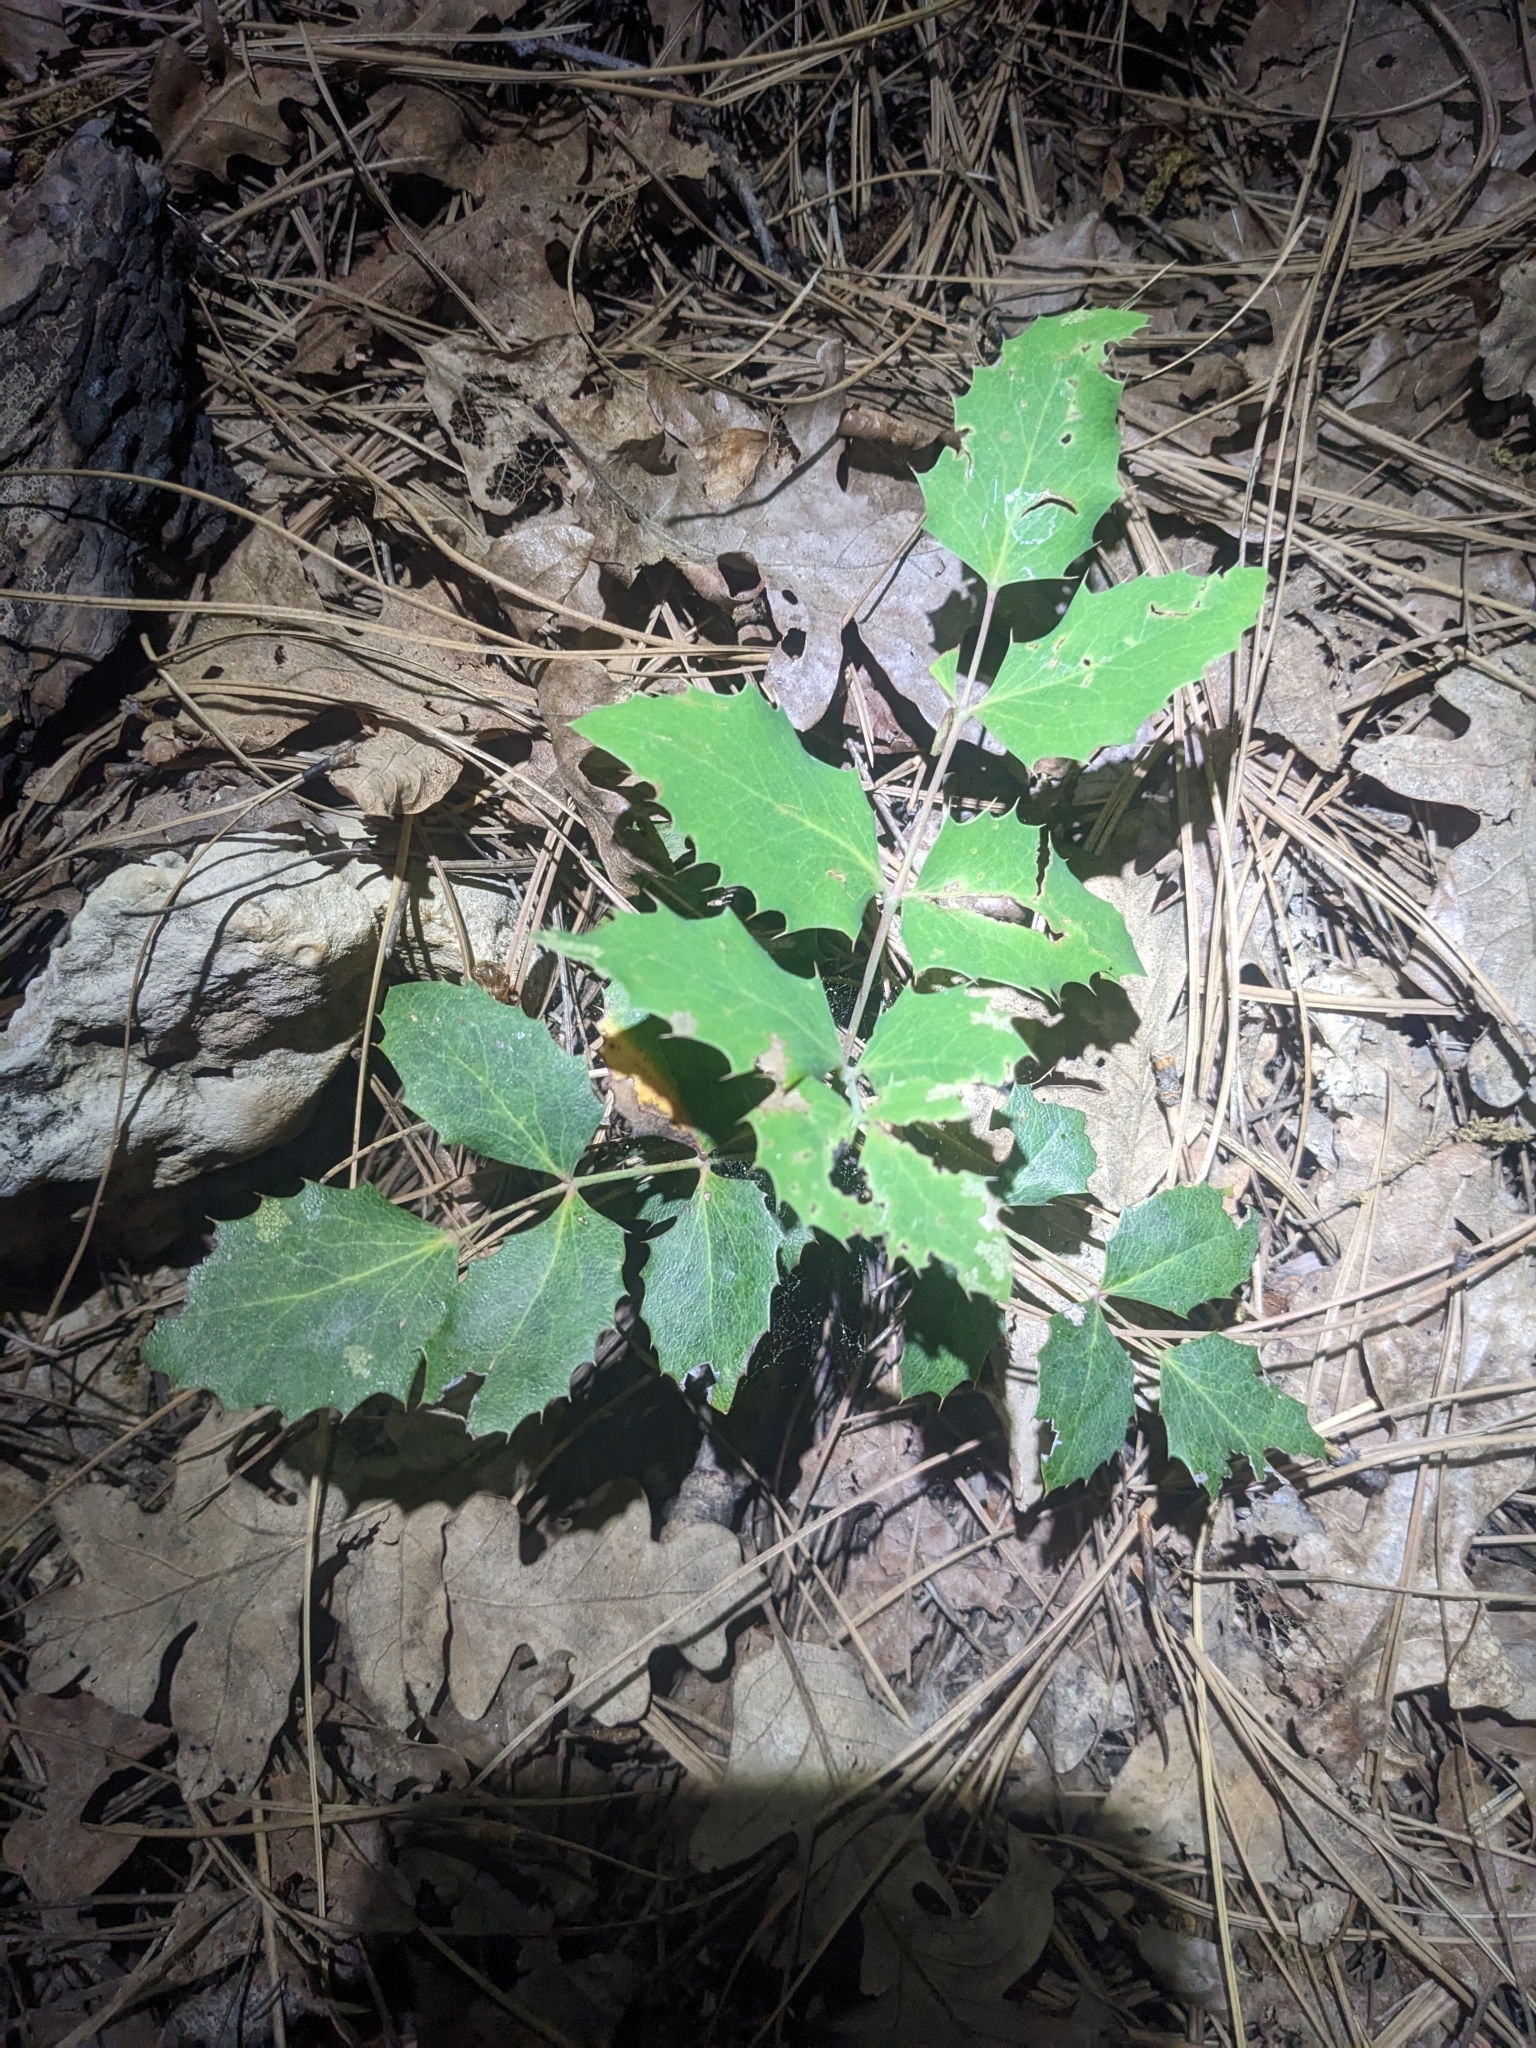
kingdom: Plantae
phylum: Tracheophyta
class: Magnoliopsida
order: Ranunculales
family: Berberidaceae
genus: Mahonia
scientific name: Mahonia repens
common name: Creeping oregon-grape
